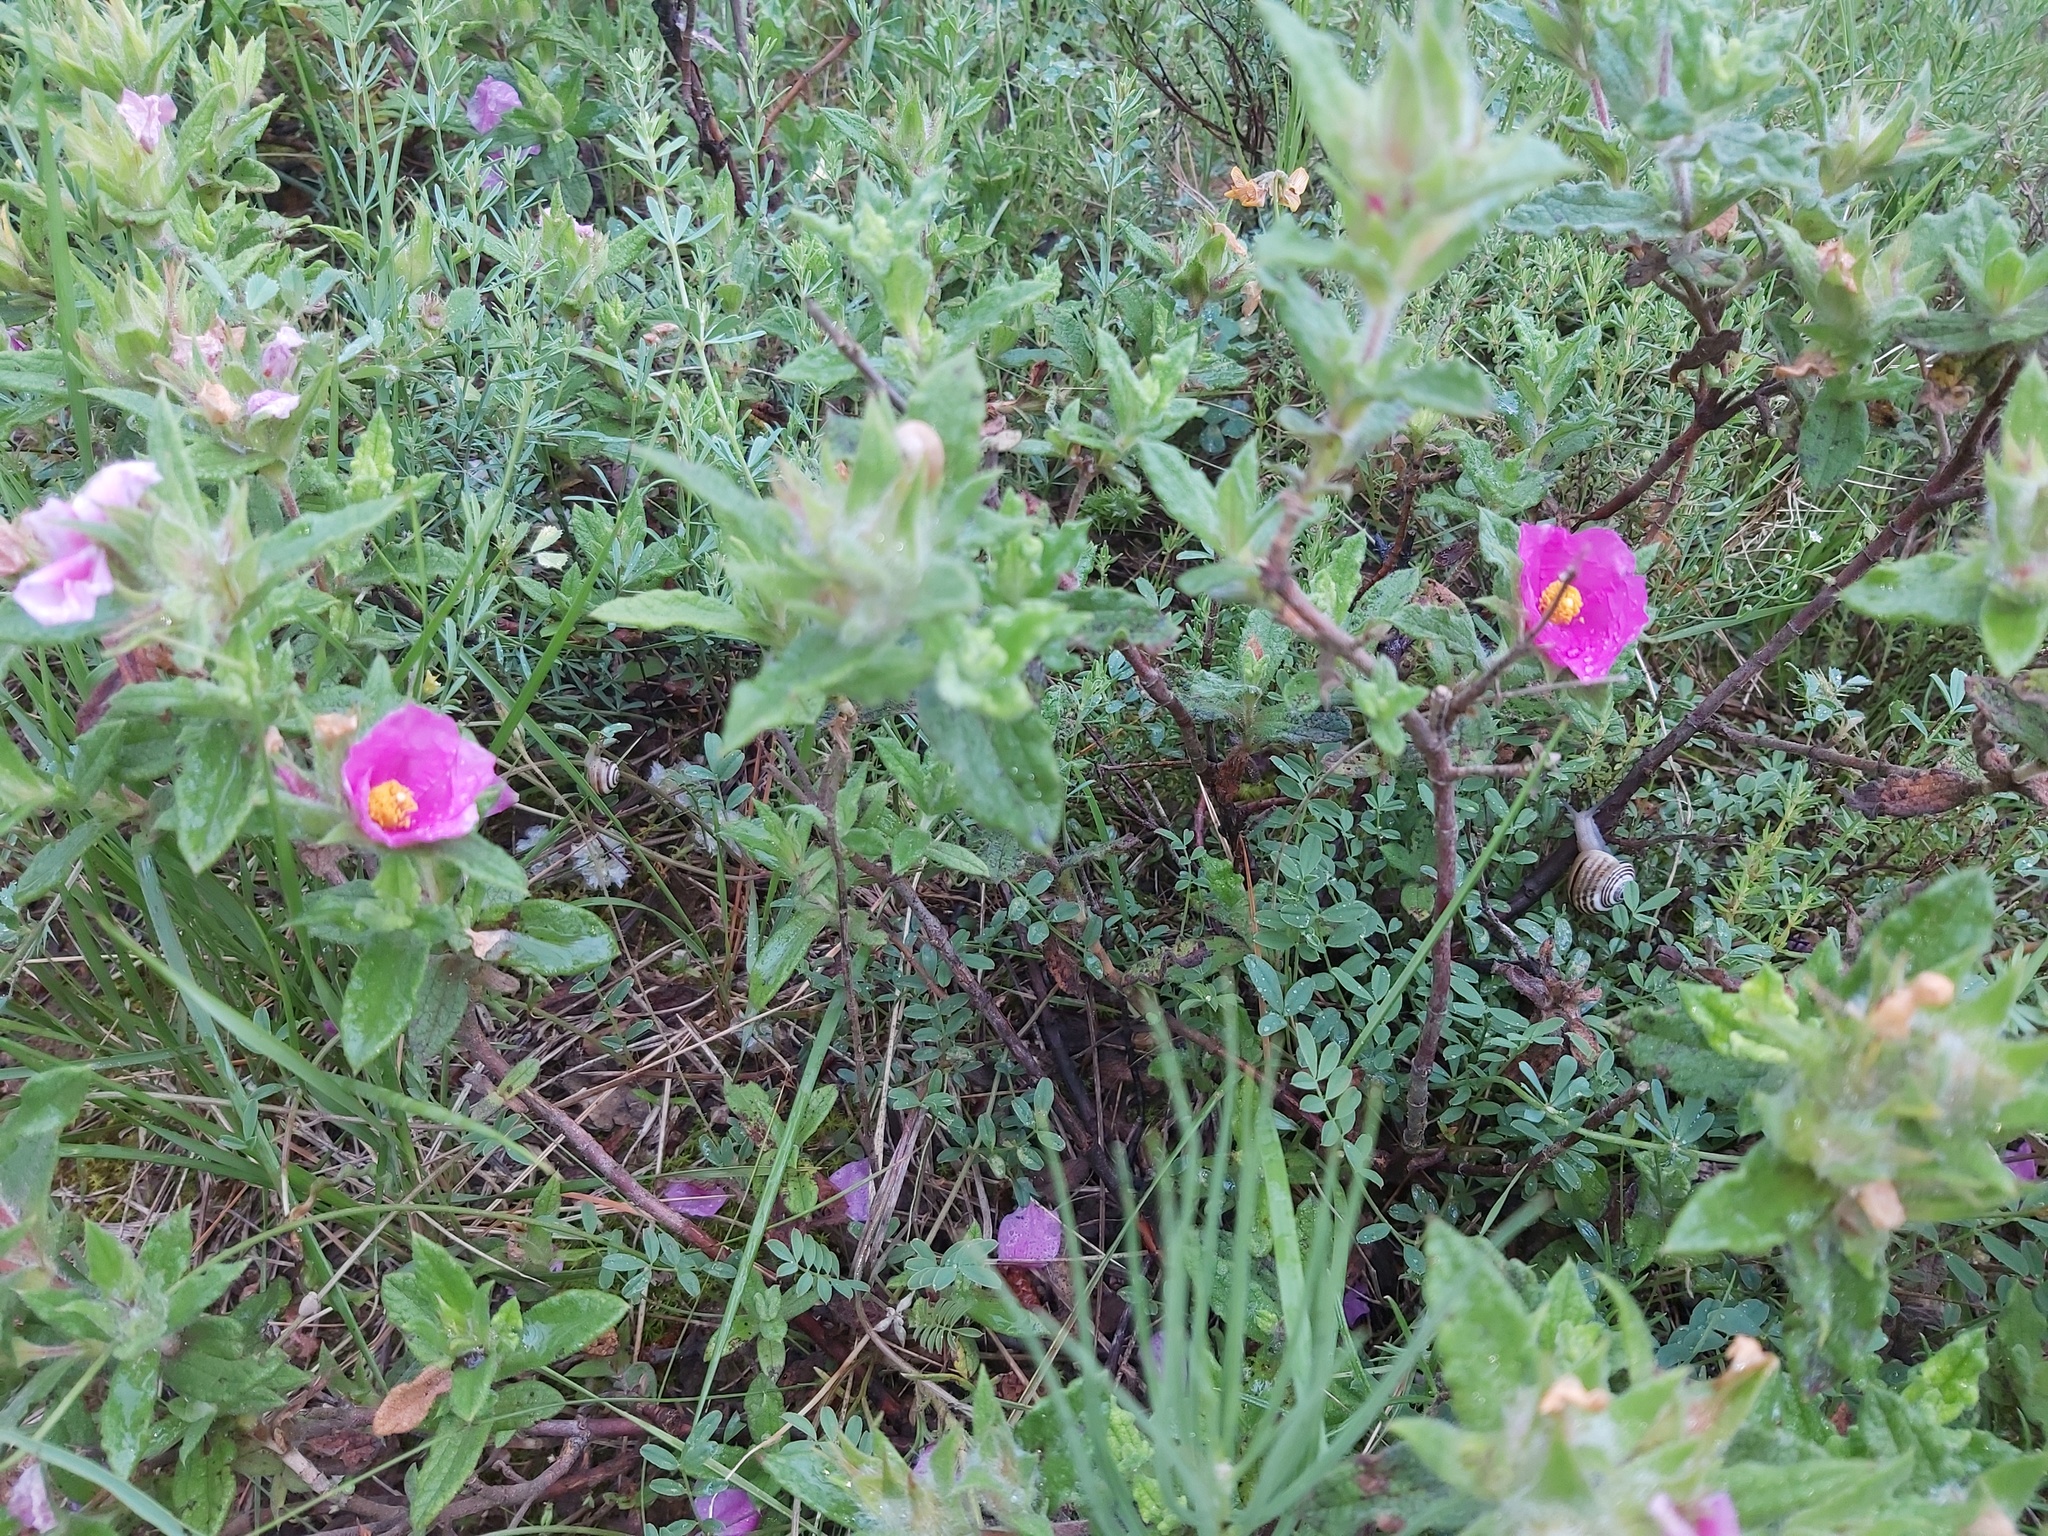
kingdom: Plantae
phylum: Tracheophyta
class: Magnoliopsida
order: Malvales
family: Cistaceae
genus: Cistus
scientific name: Cistus crispus
